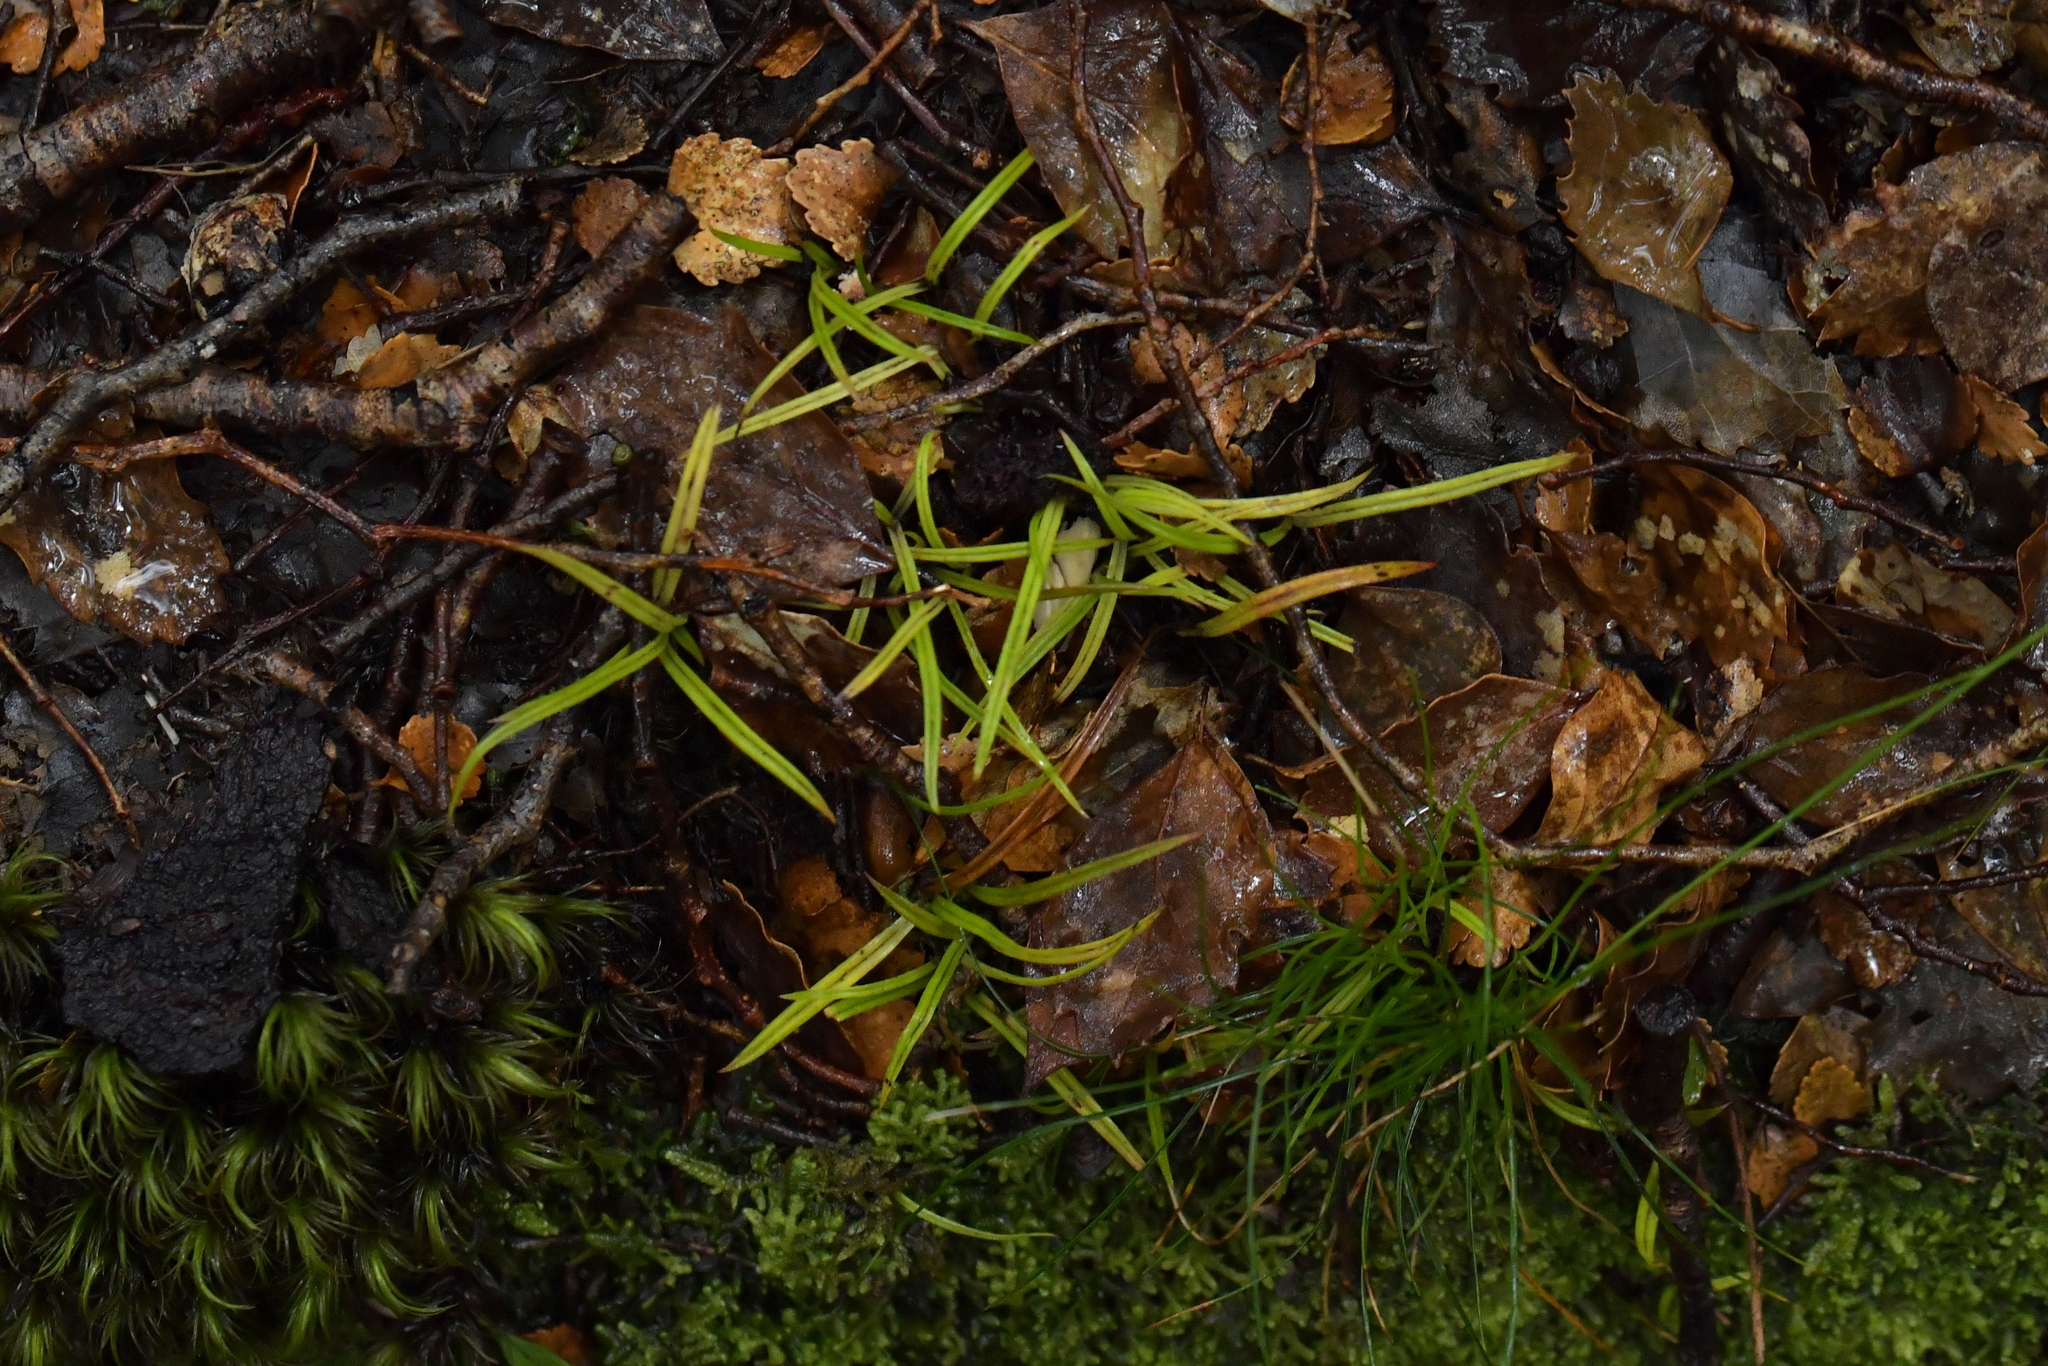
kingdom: Plantae
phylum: Tracheophyta
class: Liliopsida
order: Asparagales
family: Asteliaceae
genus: Astelia
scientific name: Astelia linearis
